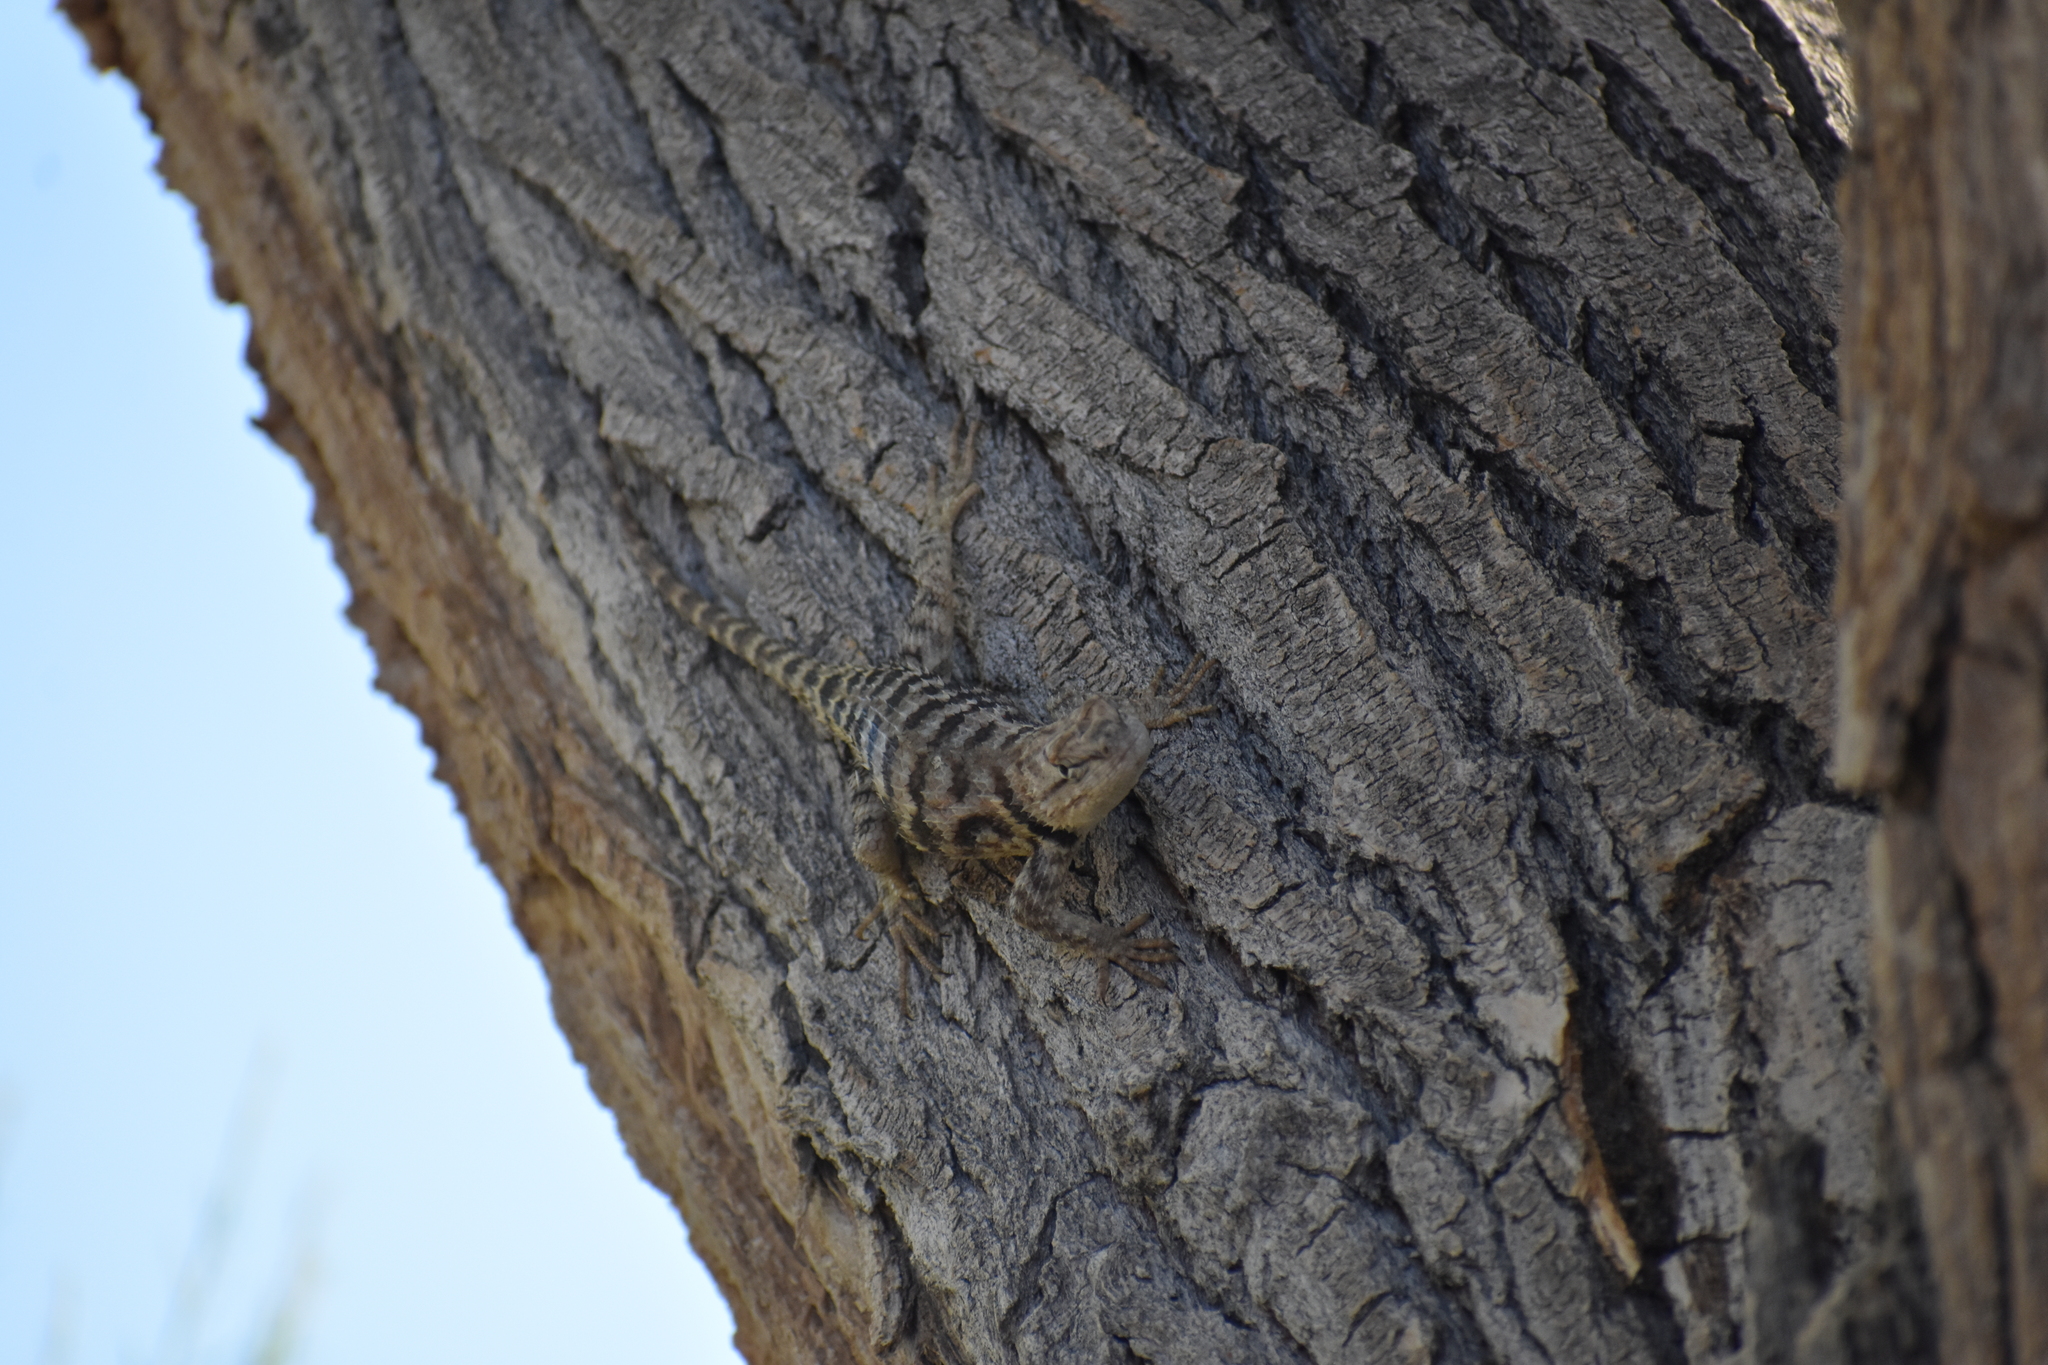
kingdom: Animalia
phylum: Chordata
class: Squamata
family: Phrynosomatidae
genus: Sceloporus
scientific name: Sceloporus uniformis
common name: Yellow-backed spiny lizard
